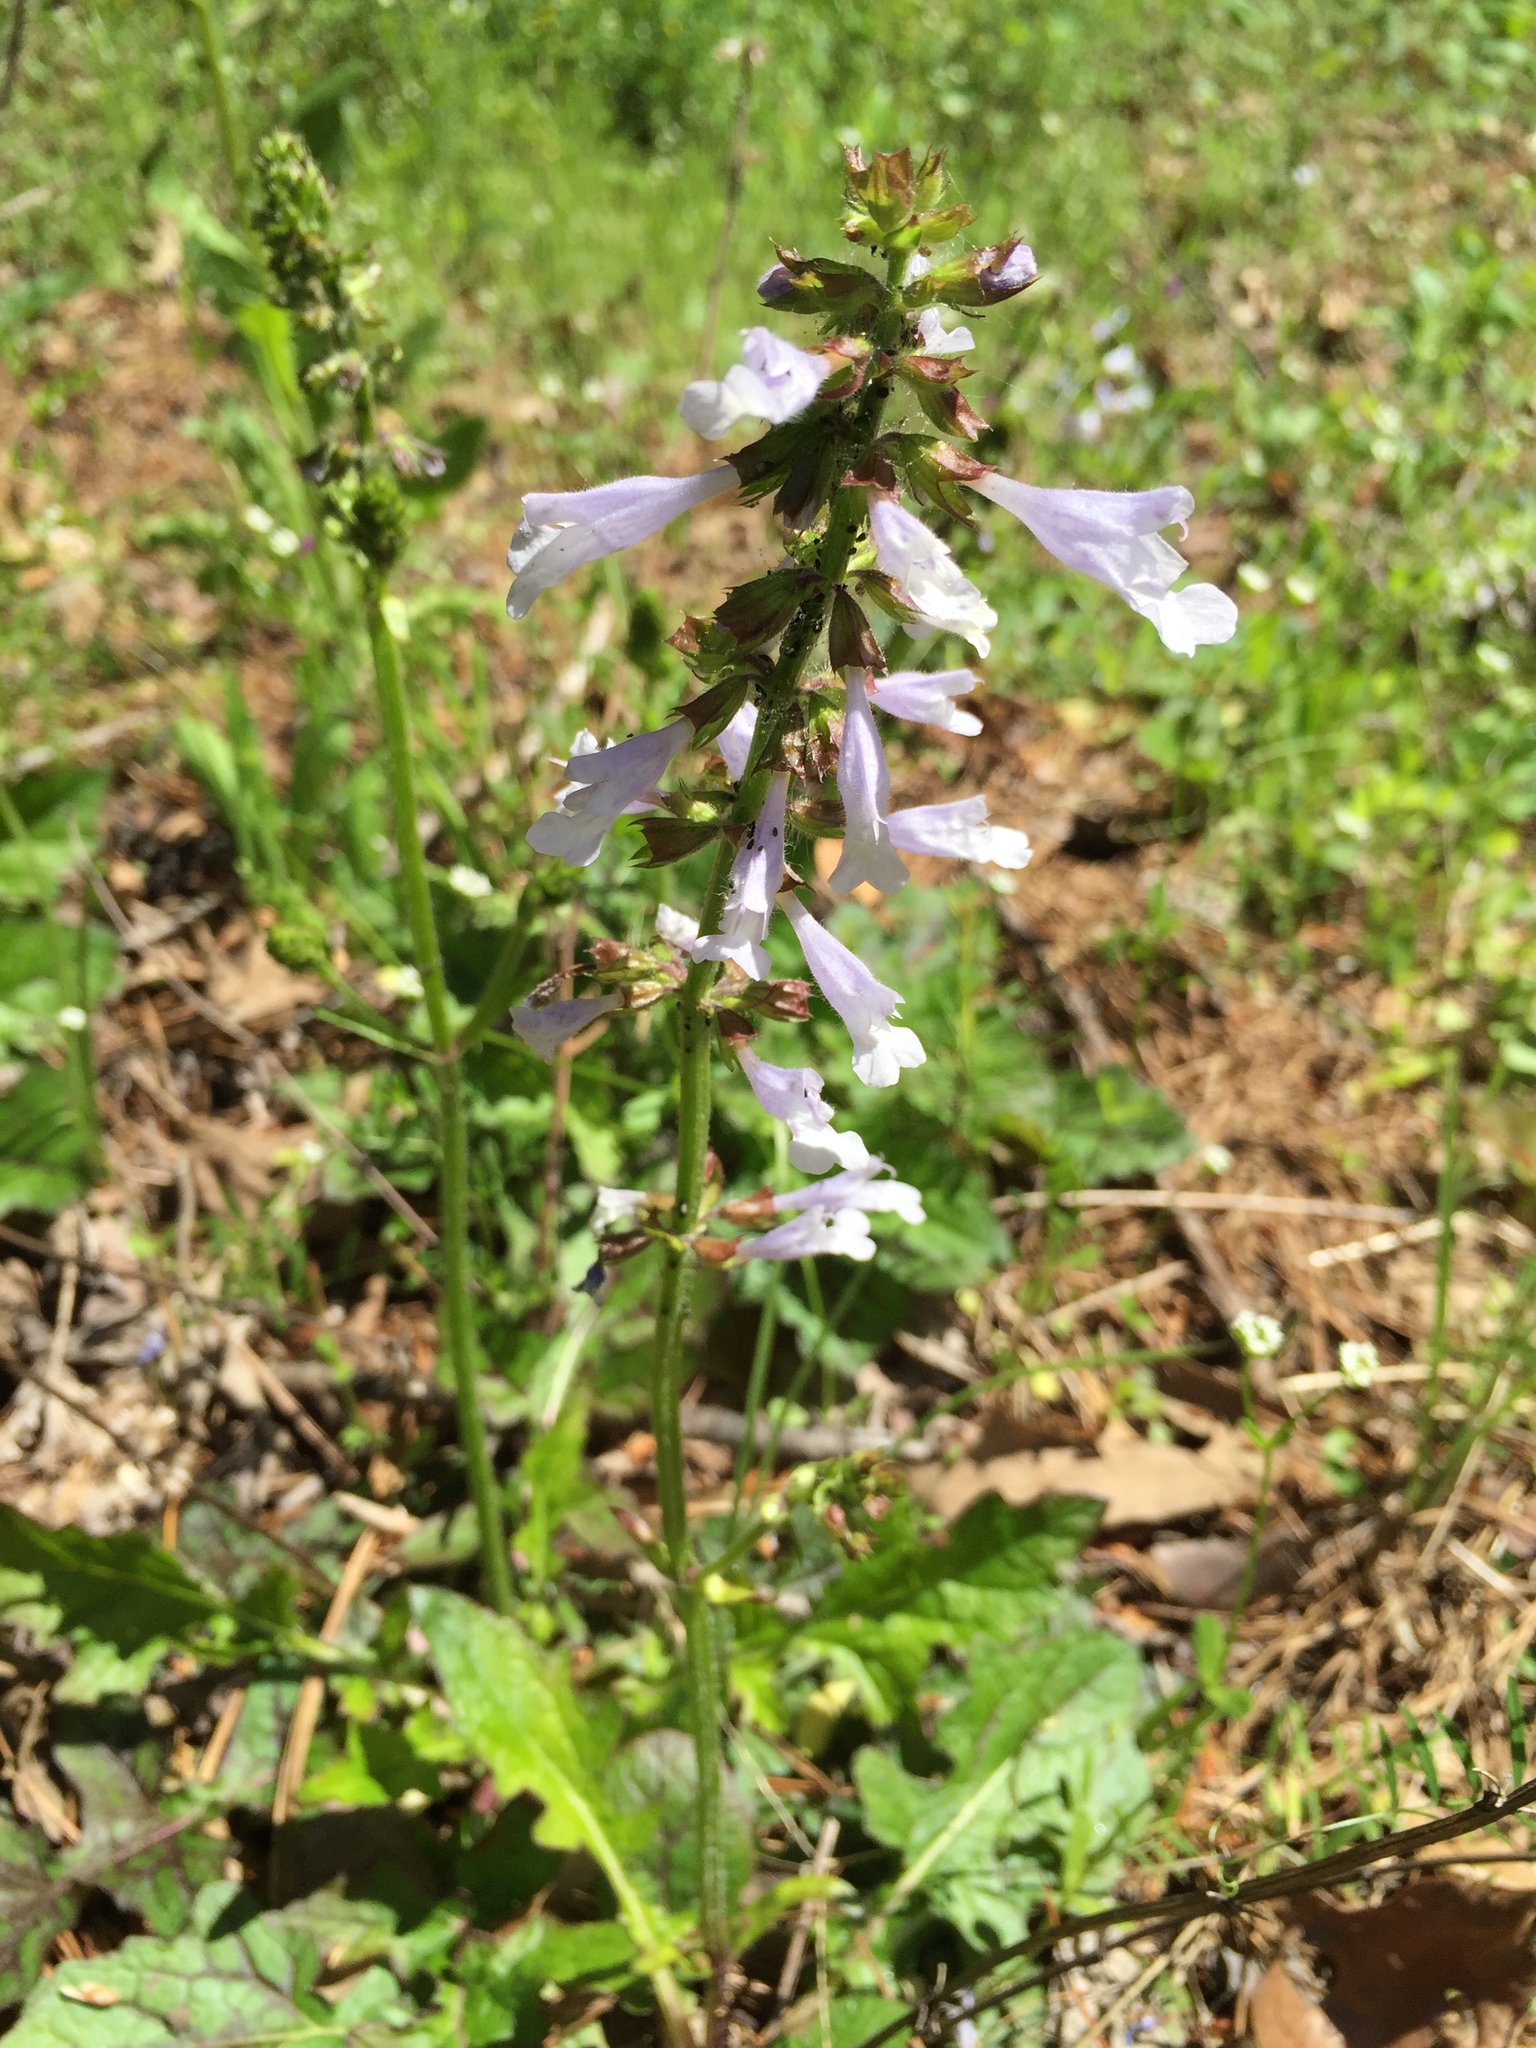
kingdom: Plantae
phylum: Tracheophyta
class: Magnoliopsida
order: Lamiales
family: Lamiaceae
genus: Salvia
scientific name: Salvia lyrata
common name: Cancerweed
